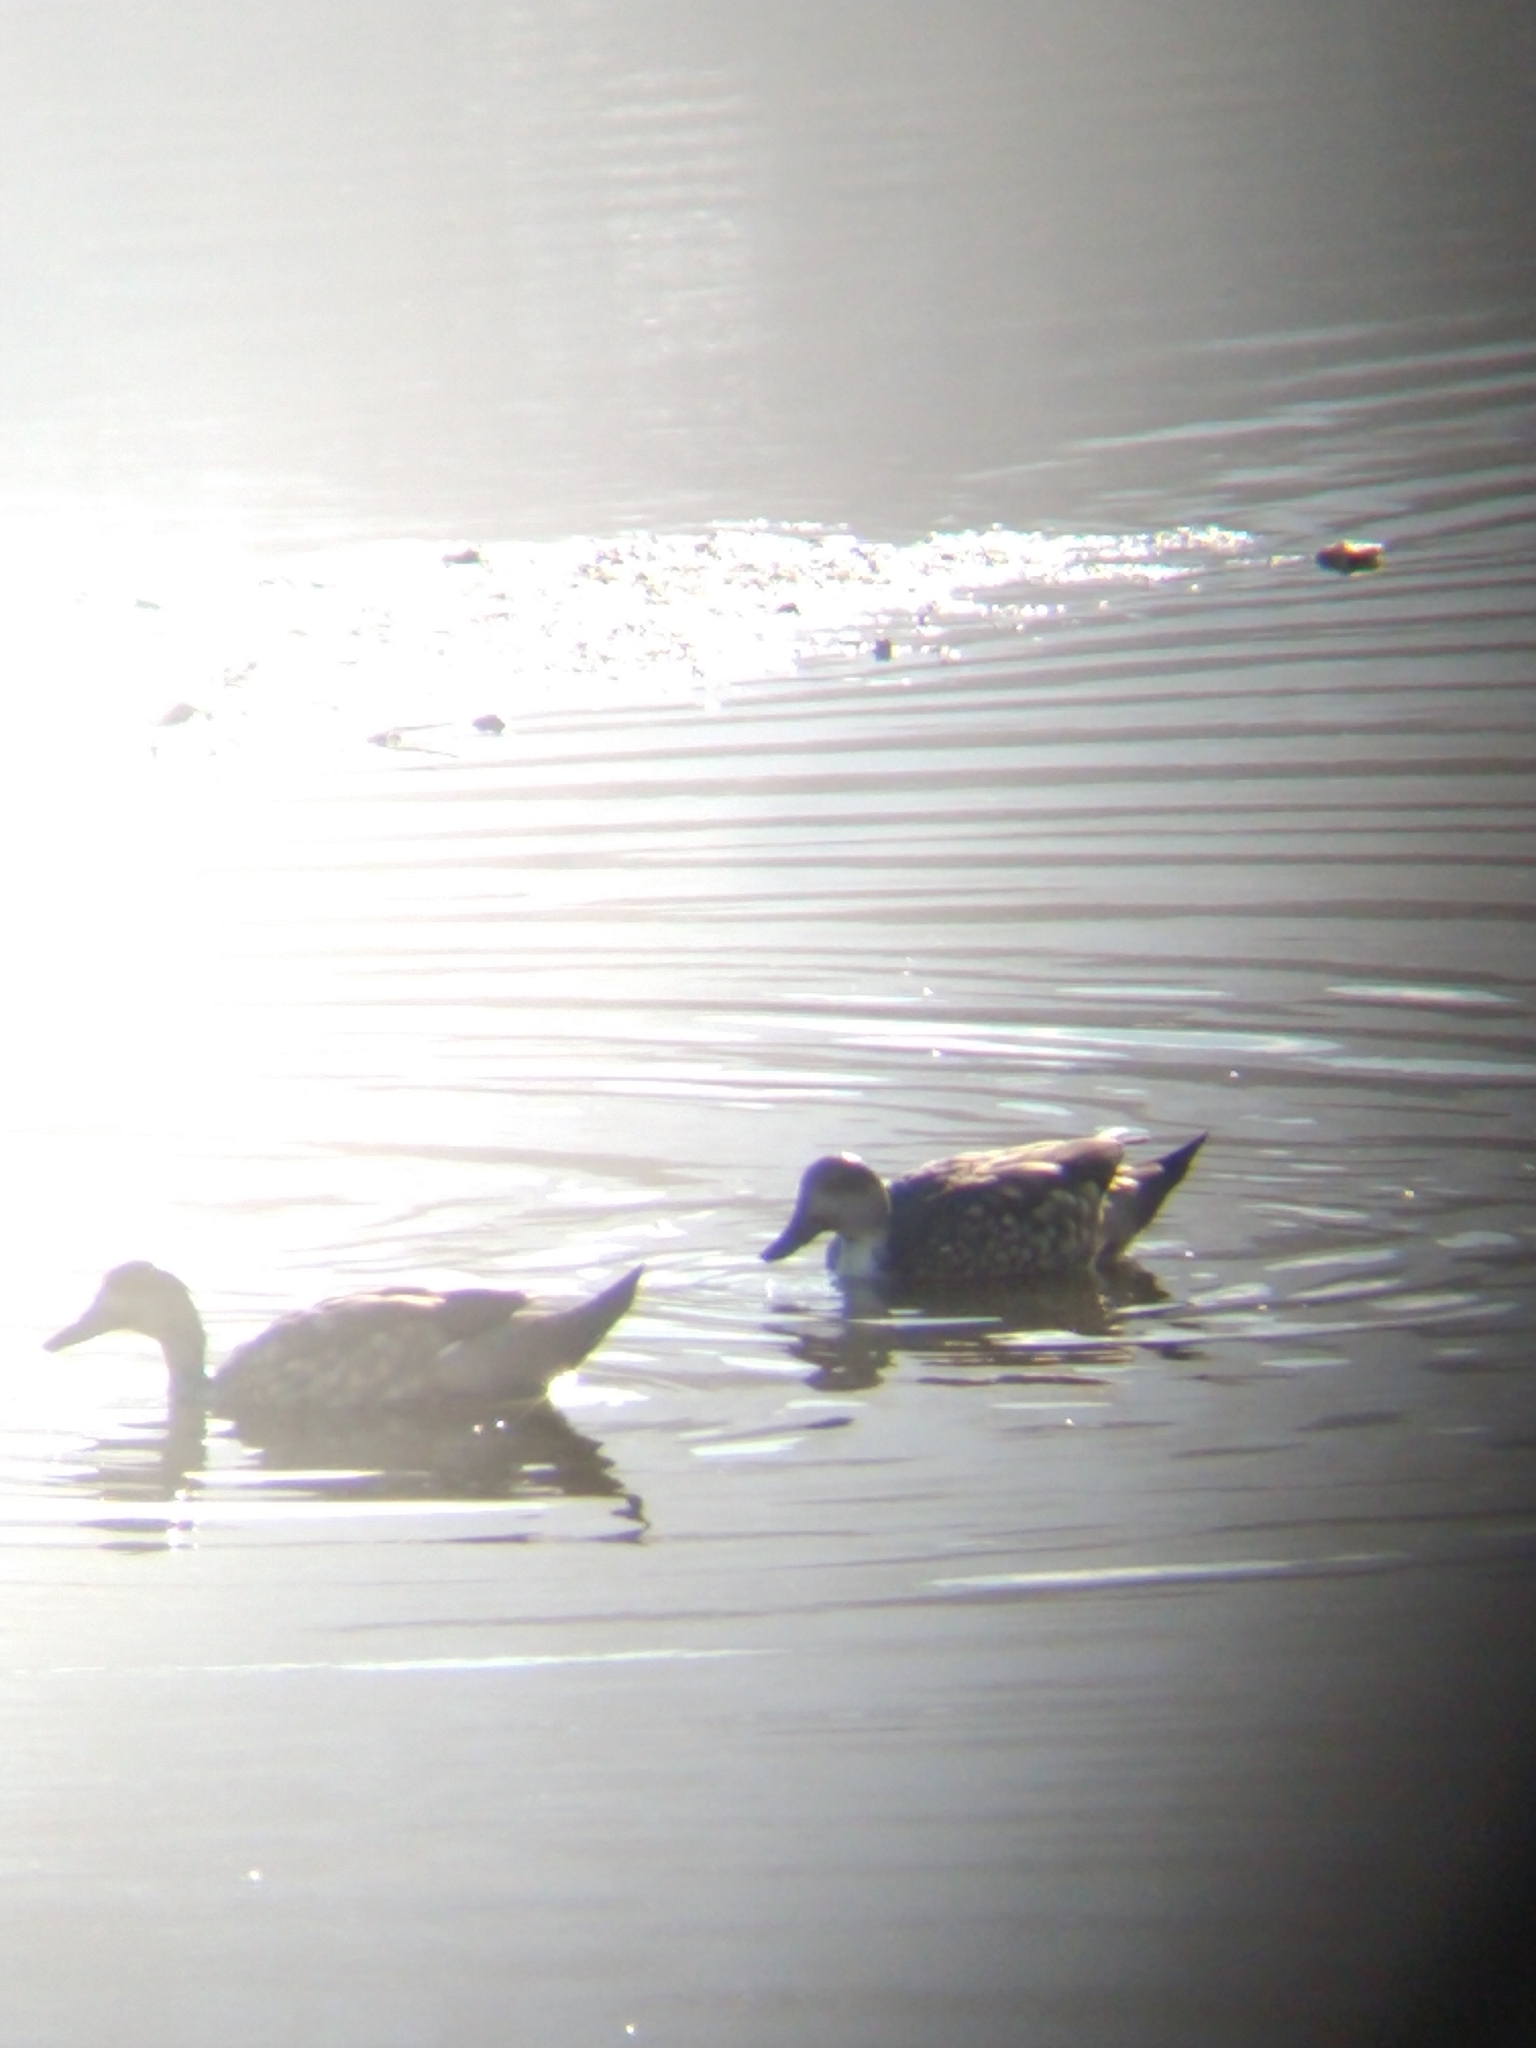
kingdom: Animalia
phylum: Chordata
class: Aves
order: Anseriformes
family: Anatidae
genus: Lophonetta
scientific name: Lophonetta specularioides
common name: Crested duck
